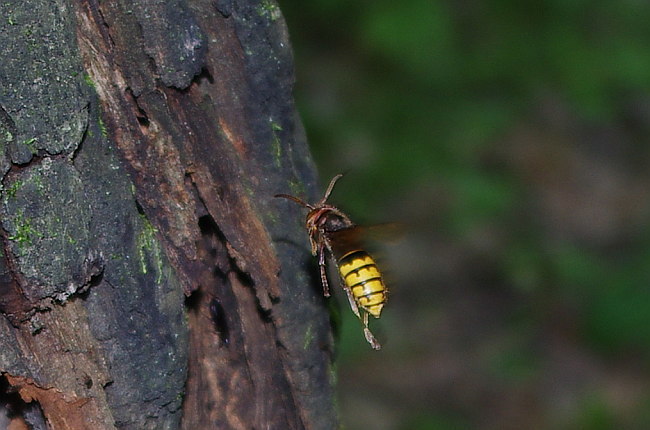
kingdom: Animalia
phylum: Arthropoda
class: Insecta
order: Hymenoptera
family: Vespidae
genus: Vespa
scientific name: Vespa crabro
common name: Hornet
